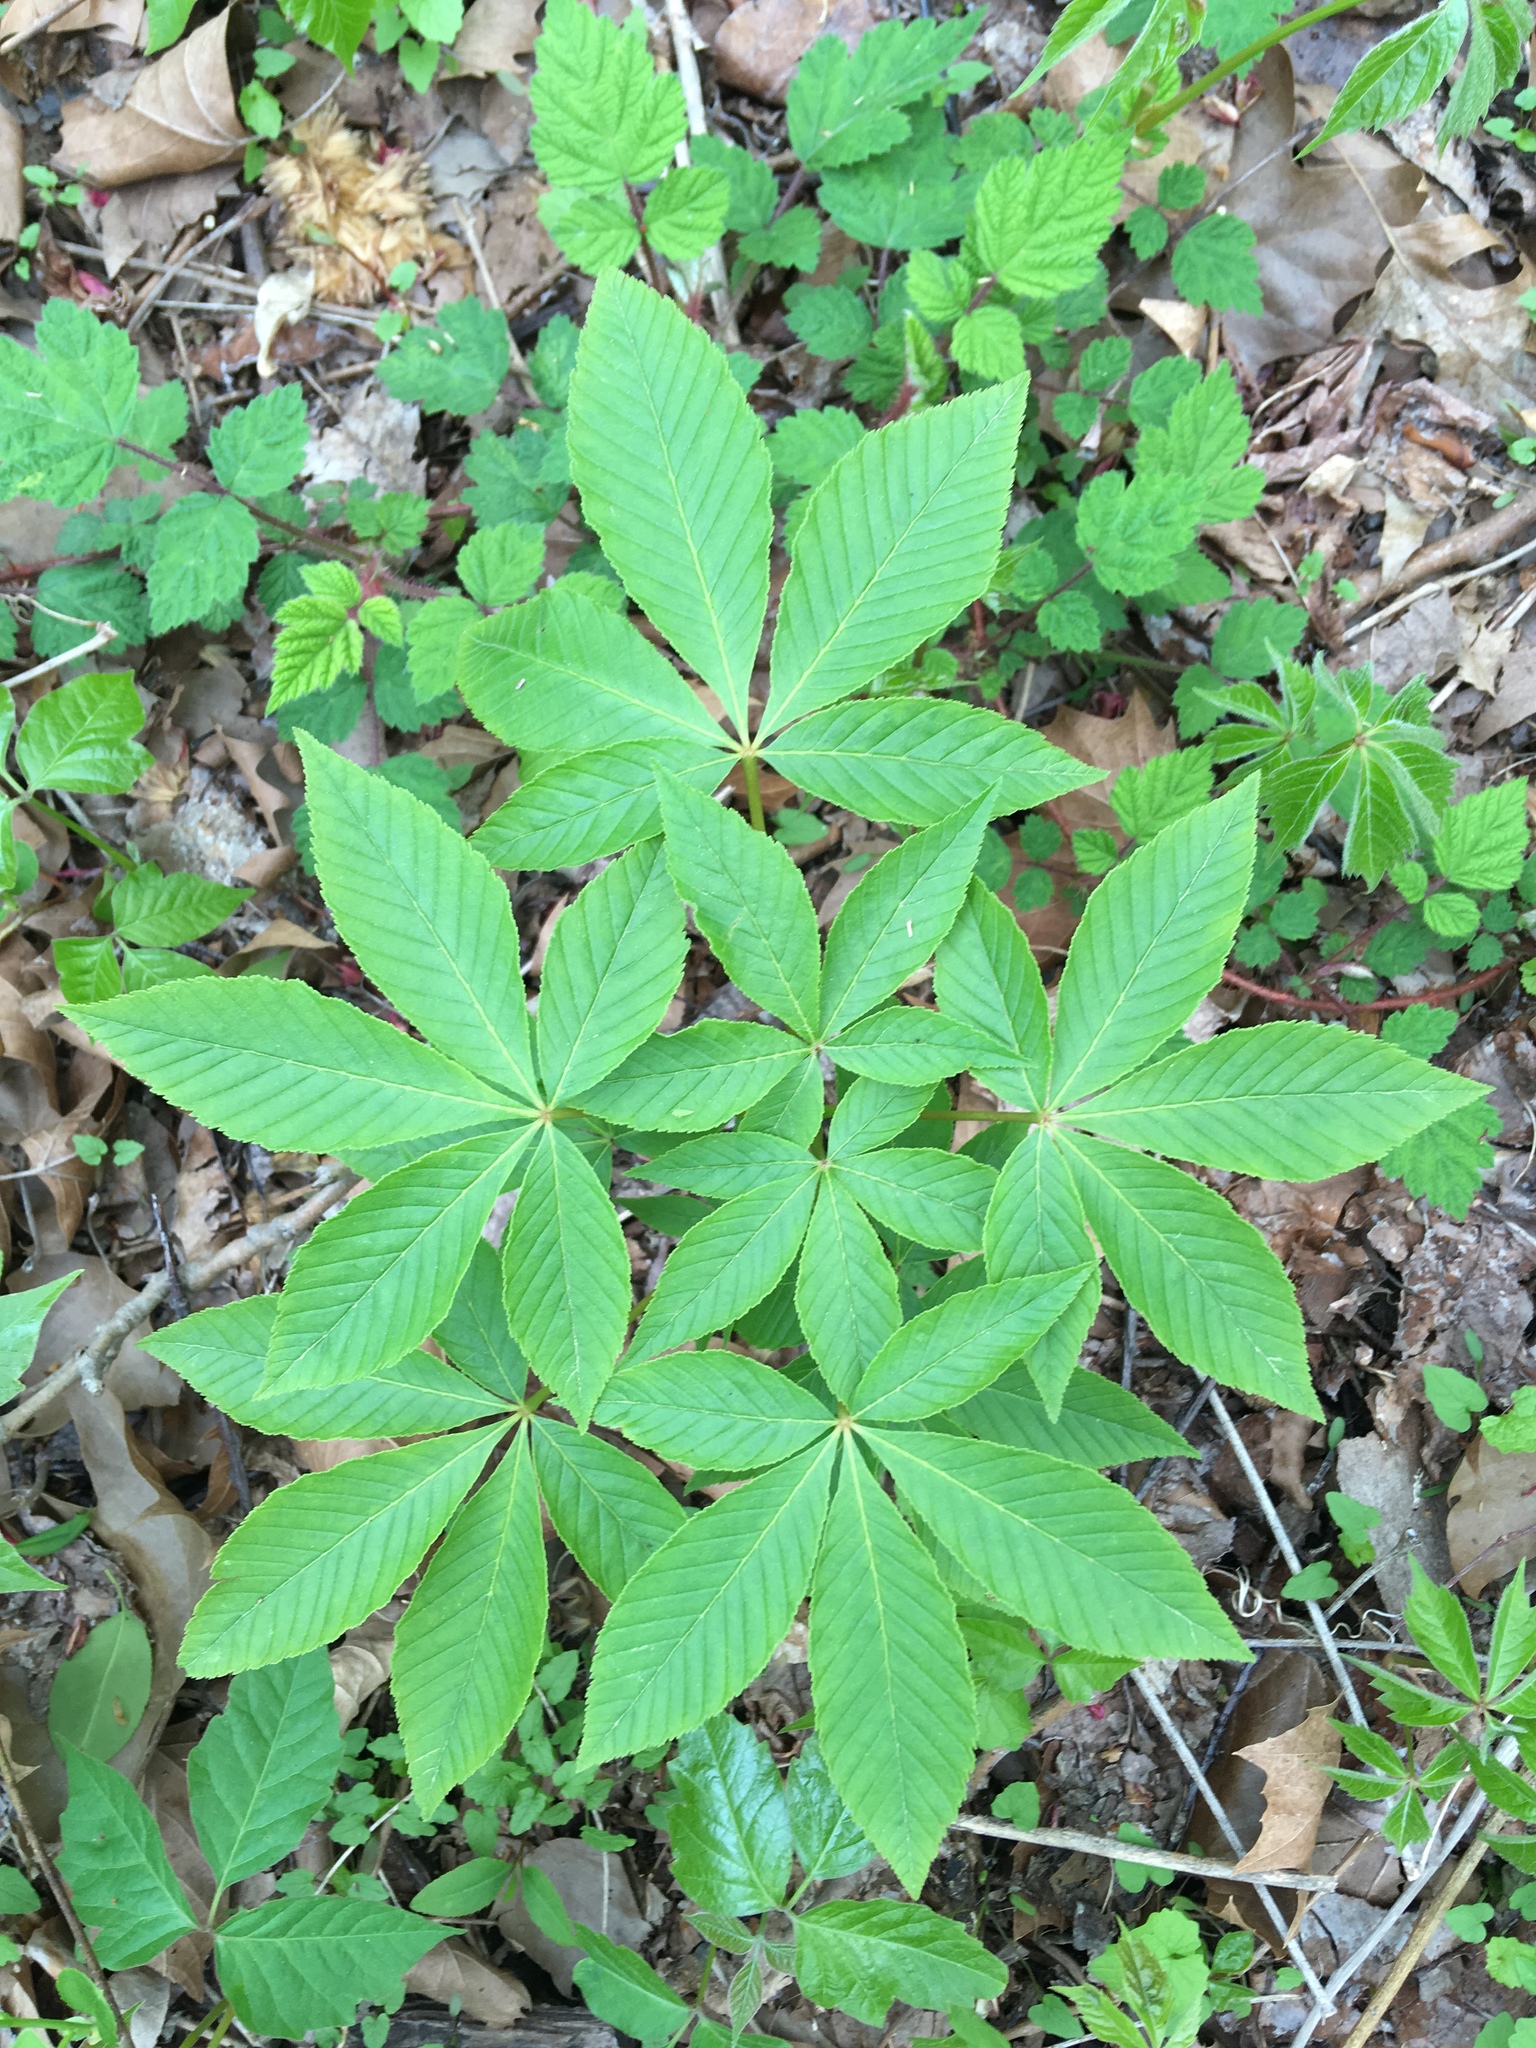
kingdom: Plantae
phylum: Tracheophyta
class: Magnoliopsida
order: Sapindales
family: Sapindaceae
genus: Aesculus
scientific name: Aesculus glabra
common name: Ohio buckeye
